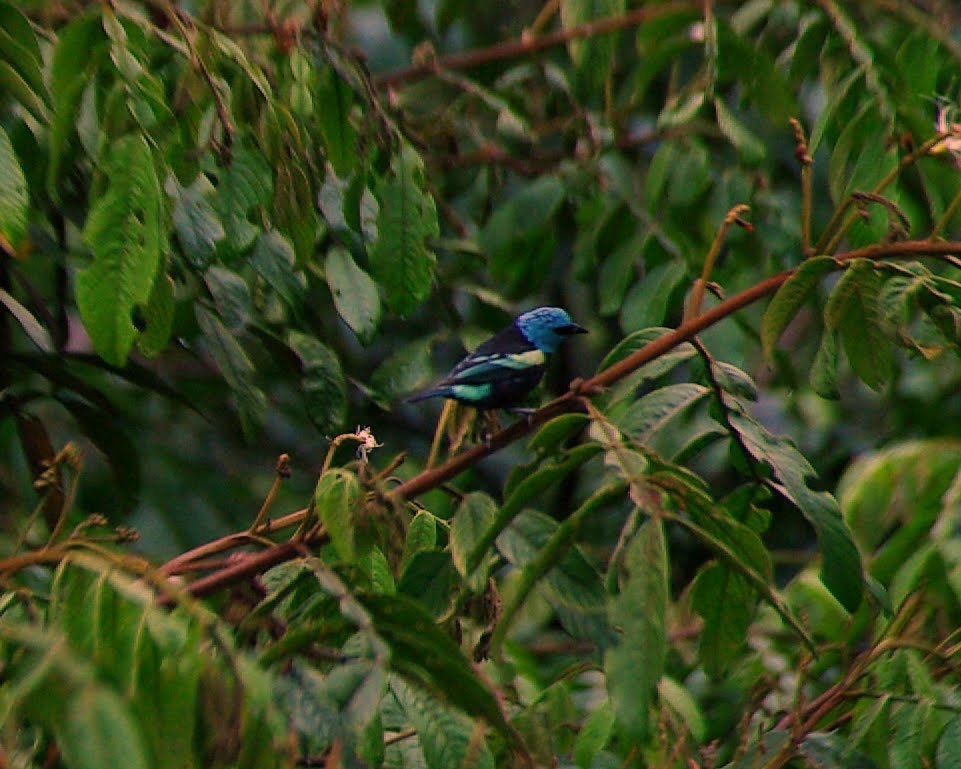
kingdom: Animalia
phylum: Chordata
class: Aves
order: Passeriformes
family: Thraupidae
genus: Stilpnia
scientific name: Stilpnia cyanicollis
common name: Blue-necked tanager
